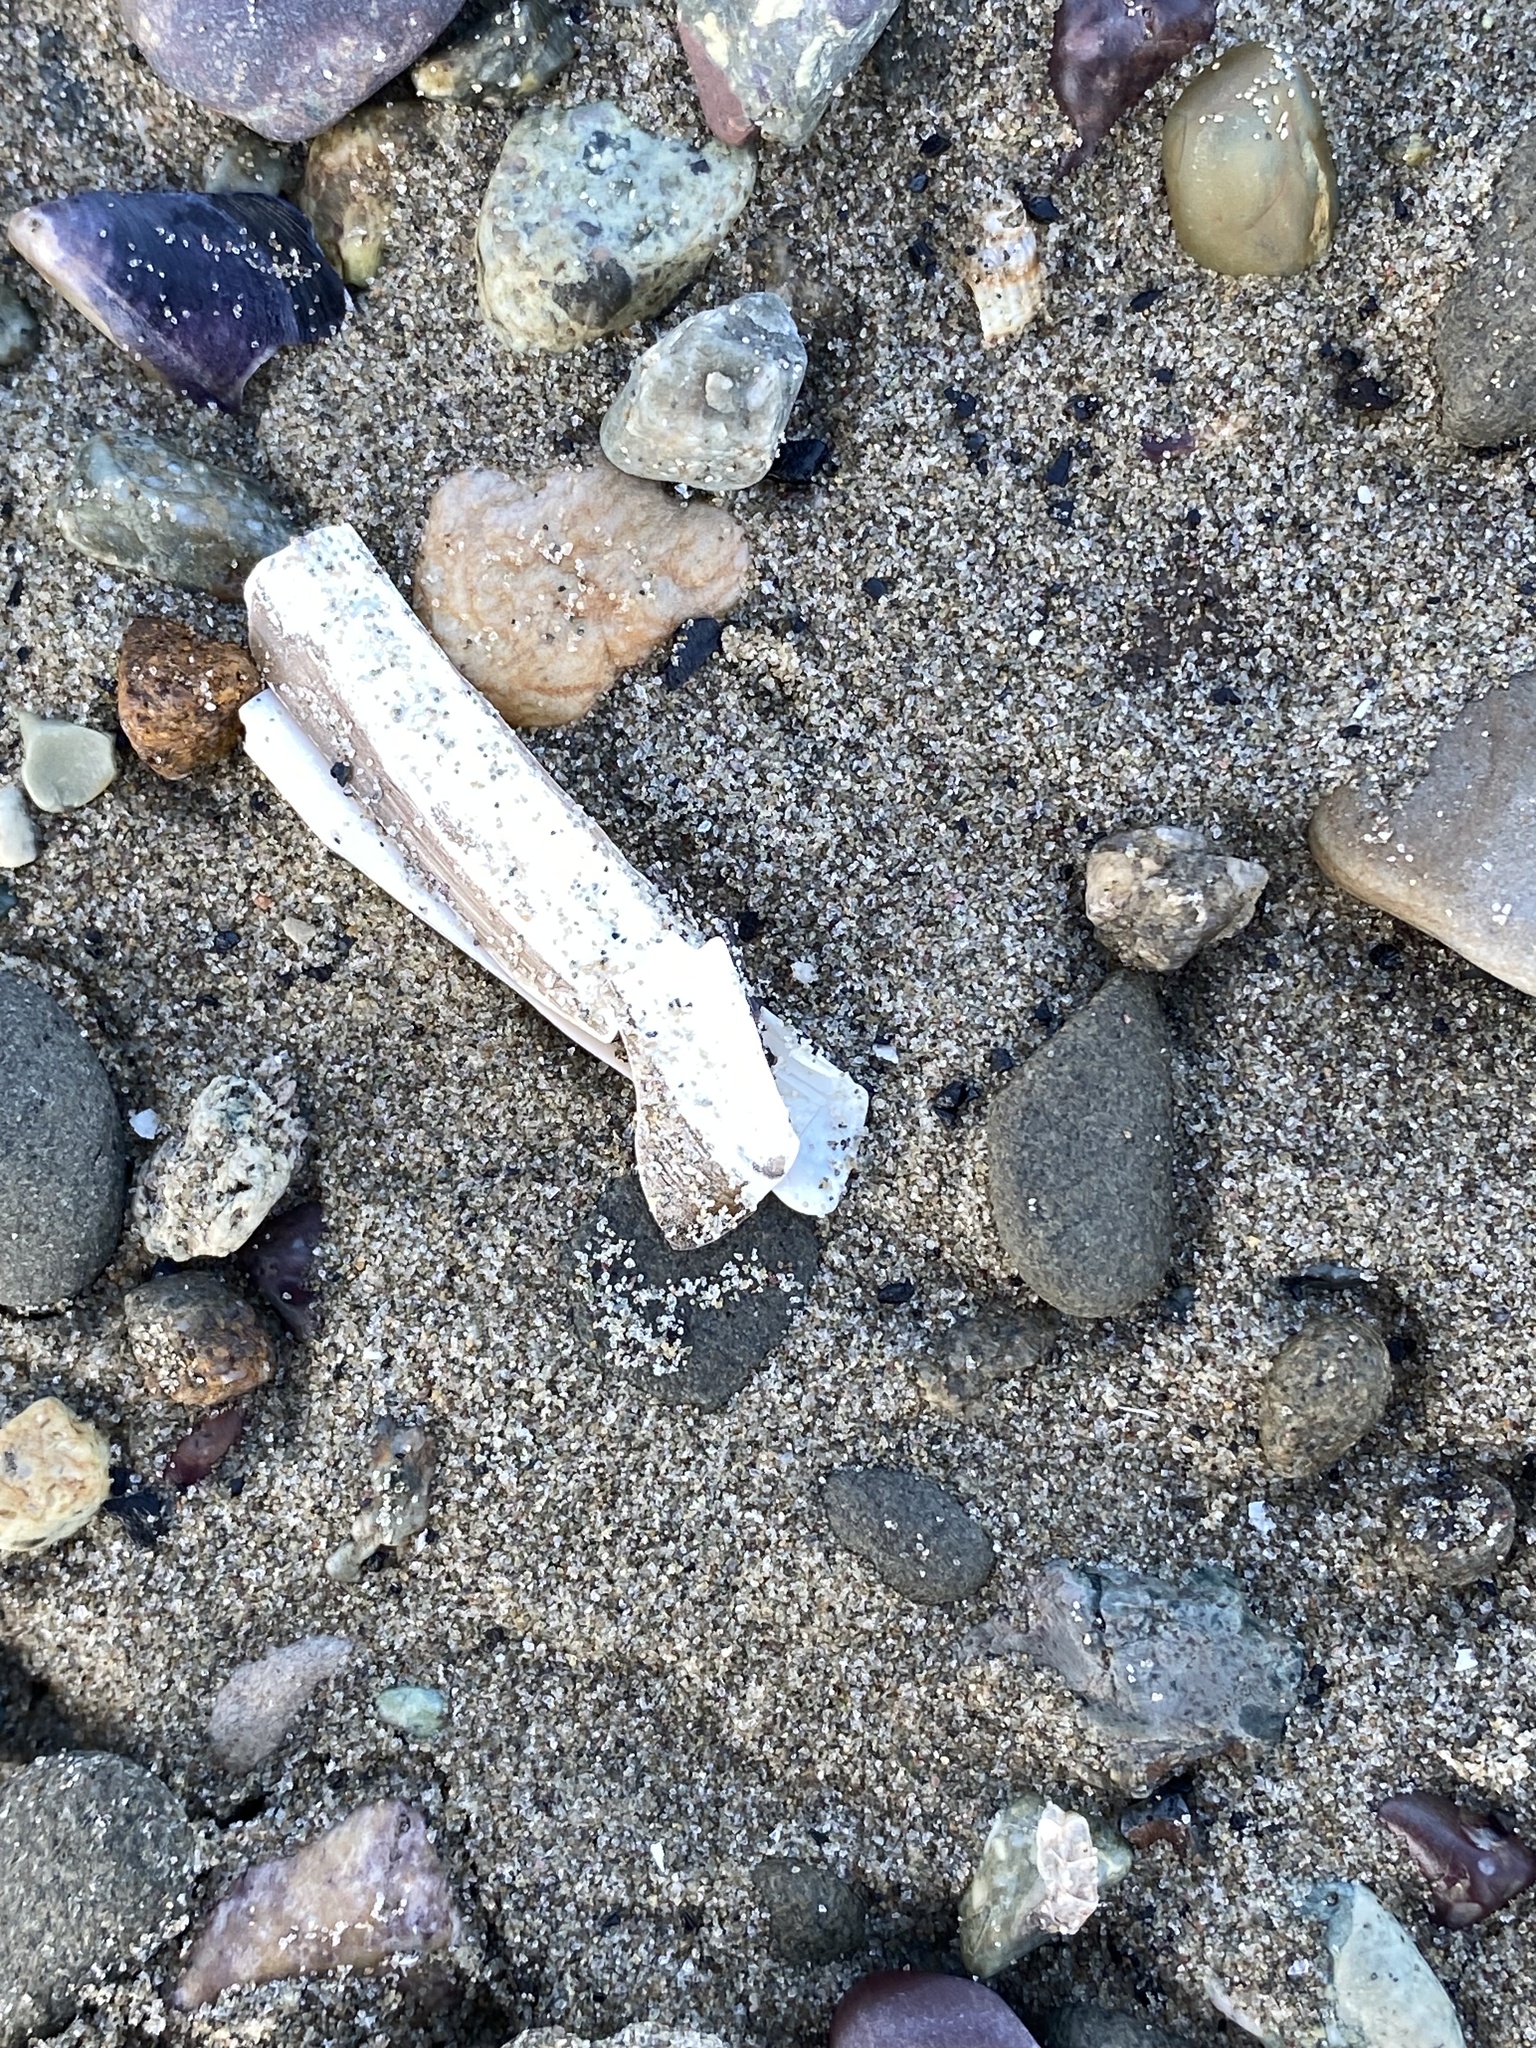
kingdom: Animalia
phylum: Mollusca
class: Bivalvia
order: Adapedonta
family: Pharidae
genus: Ensis
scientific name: Ensis leei
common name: American jack knife clam
